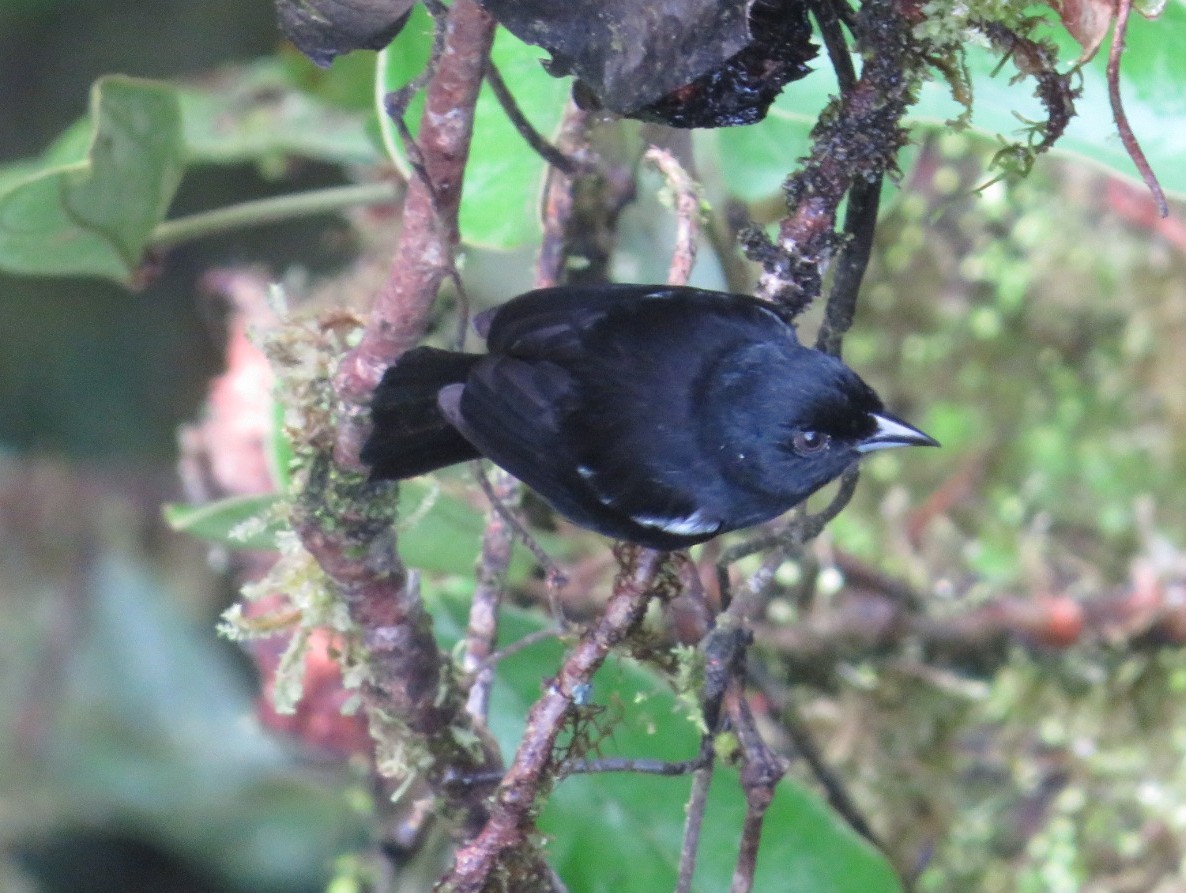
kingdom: Animalia
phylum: Chordata
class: Aves
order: Passeriformes
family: Thraupidae
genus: Loriotus
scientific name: Loriotus luctuosus
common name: White-shouldered tanager
